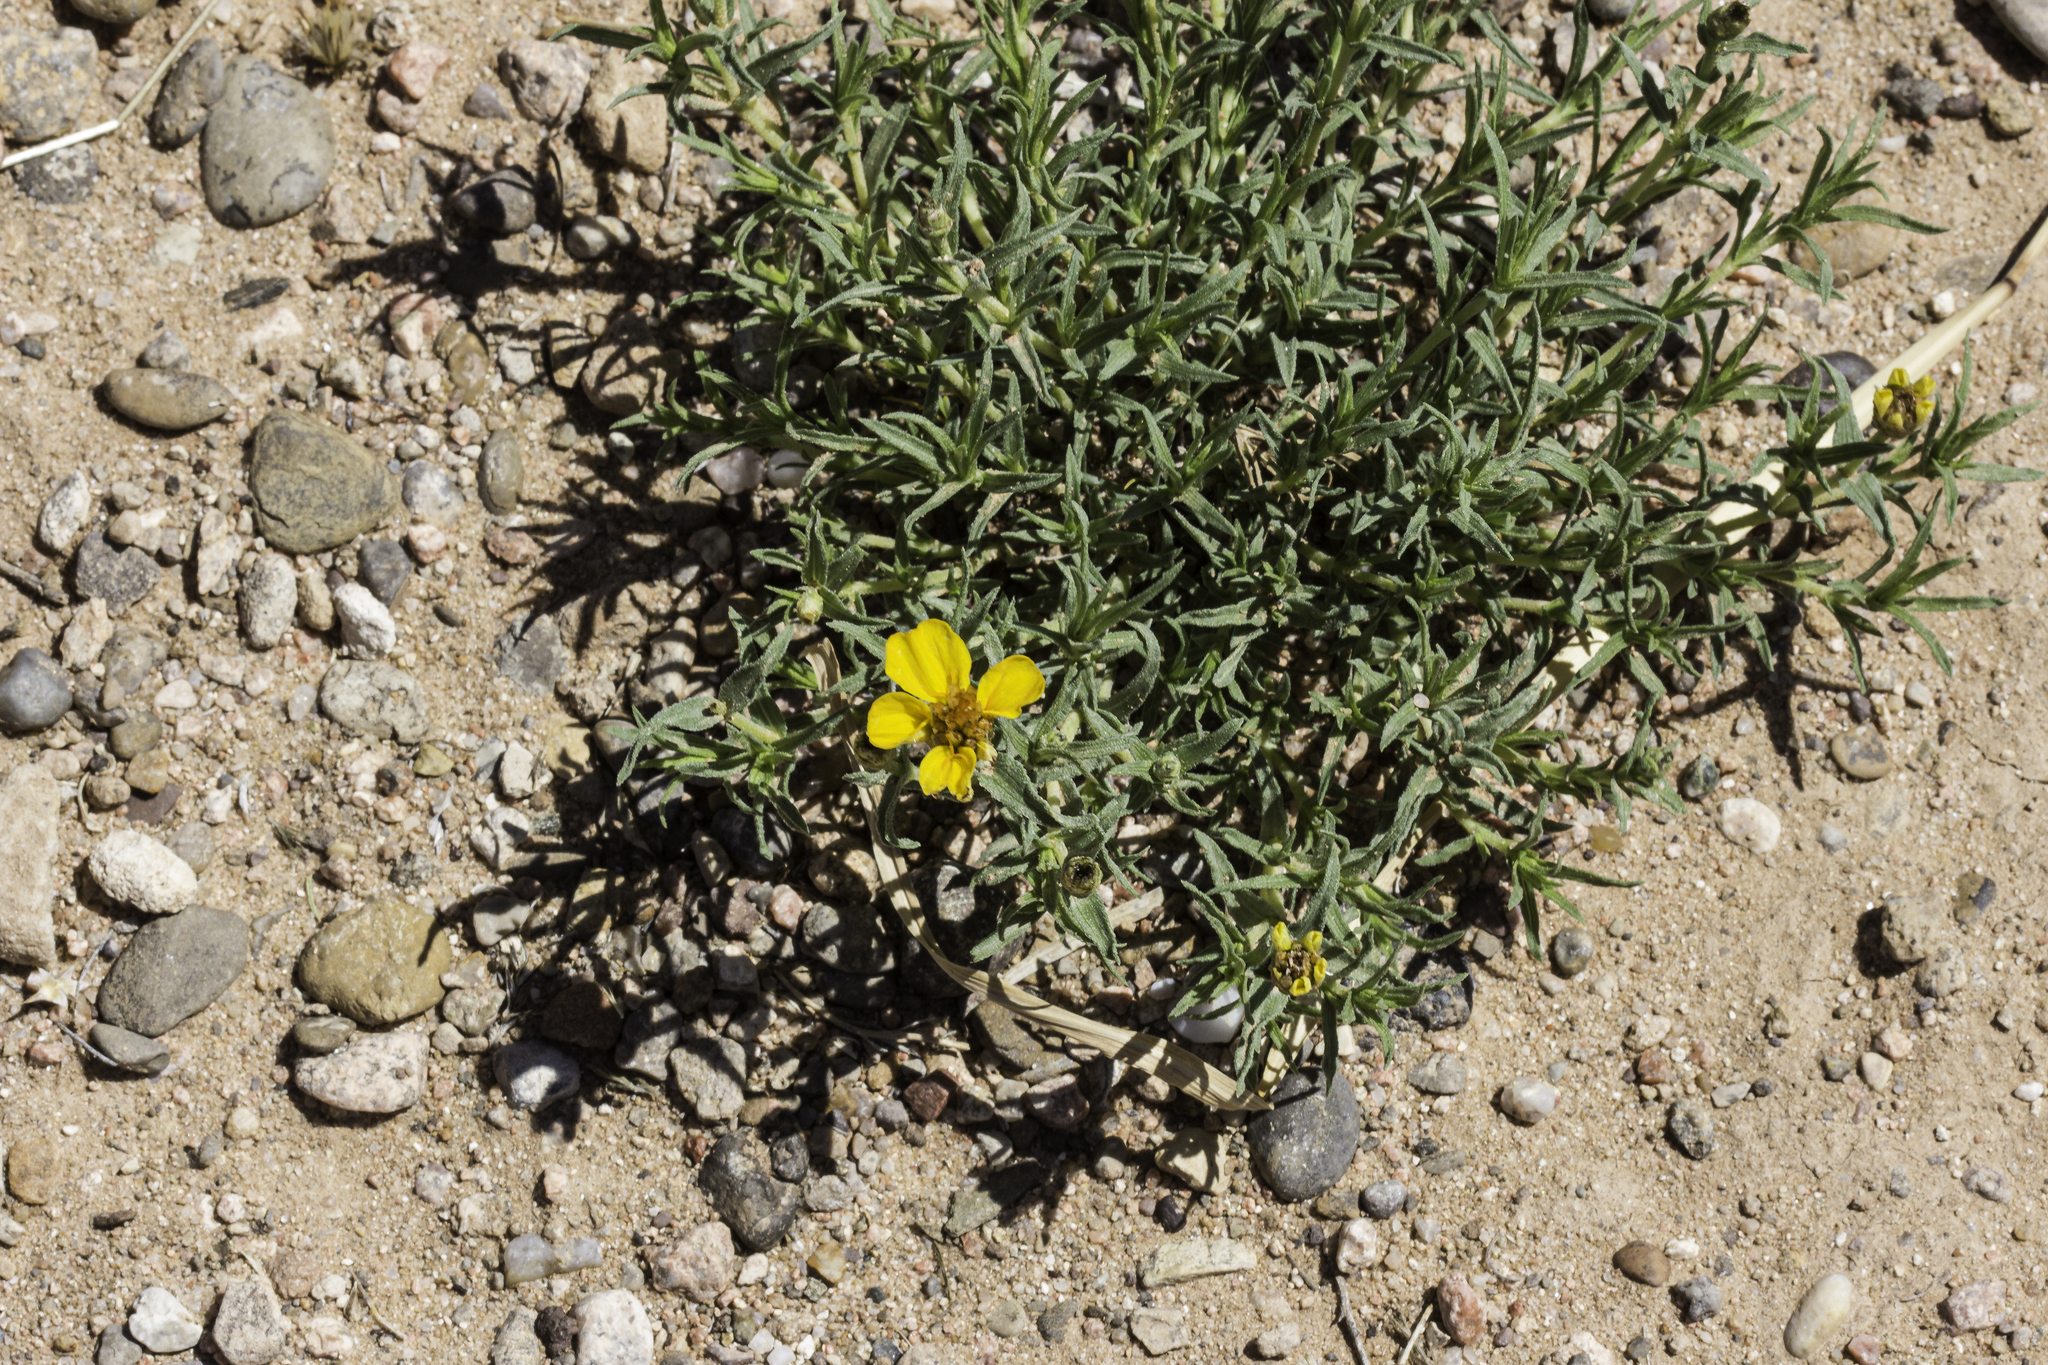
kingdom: Plantae
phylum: Tracheophyta
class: Magnoliopsida
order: Asterales
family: Asteraceae
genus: Zinnia
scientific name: Zinnia grandiflora
